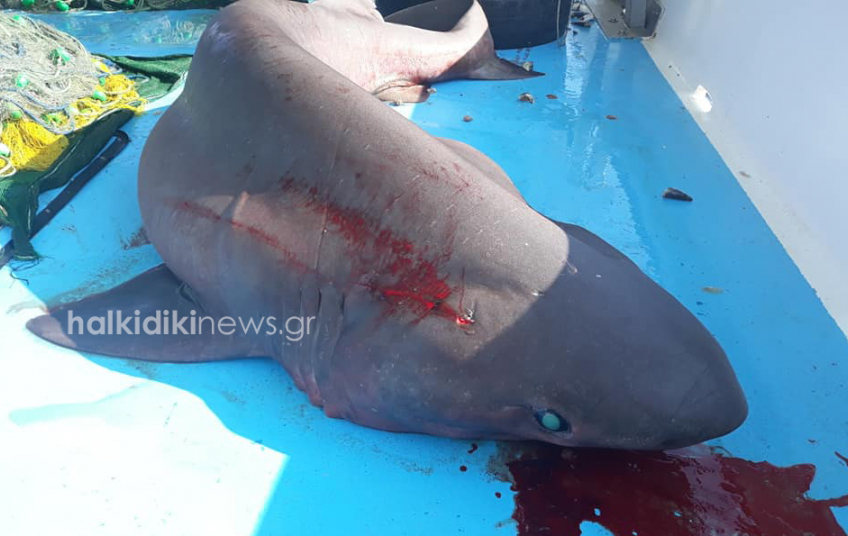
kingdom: Animalia
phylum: Chordata
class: Elasmobranchii
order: Hexanchiformes
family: Hexanchidae
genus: Hexanchus
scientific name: Hexanchus griseus
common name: Bluntnose sixgill shark
